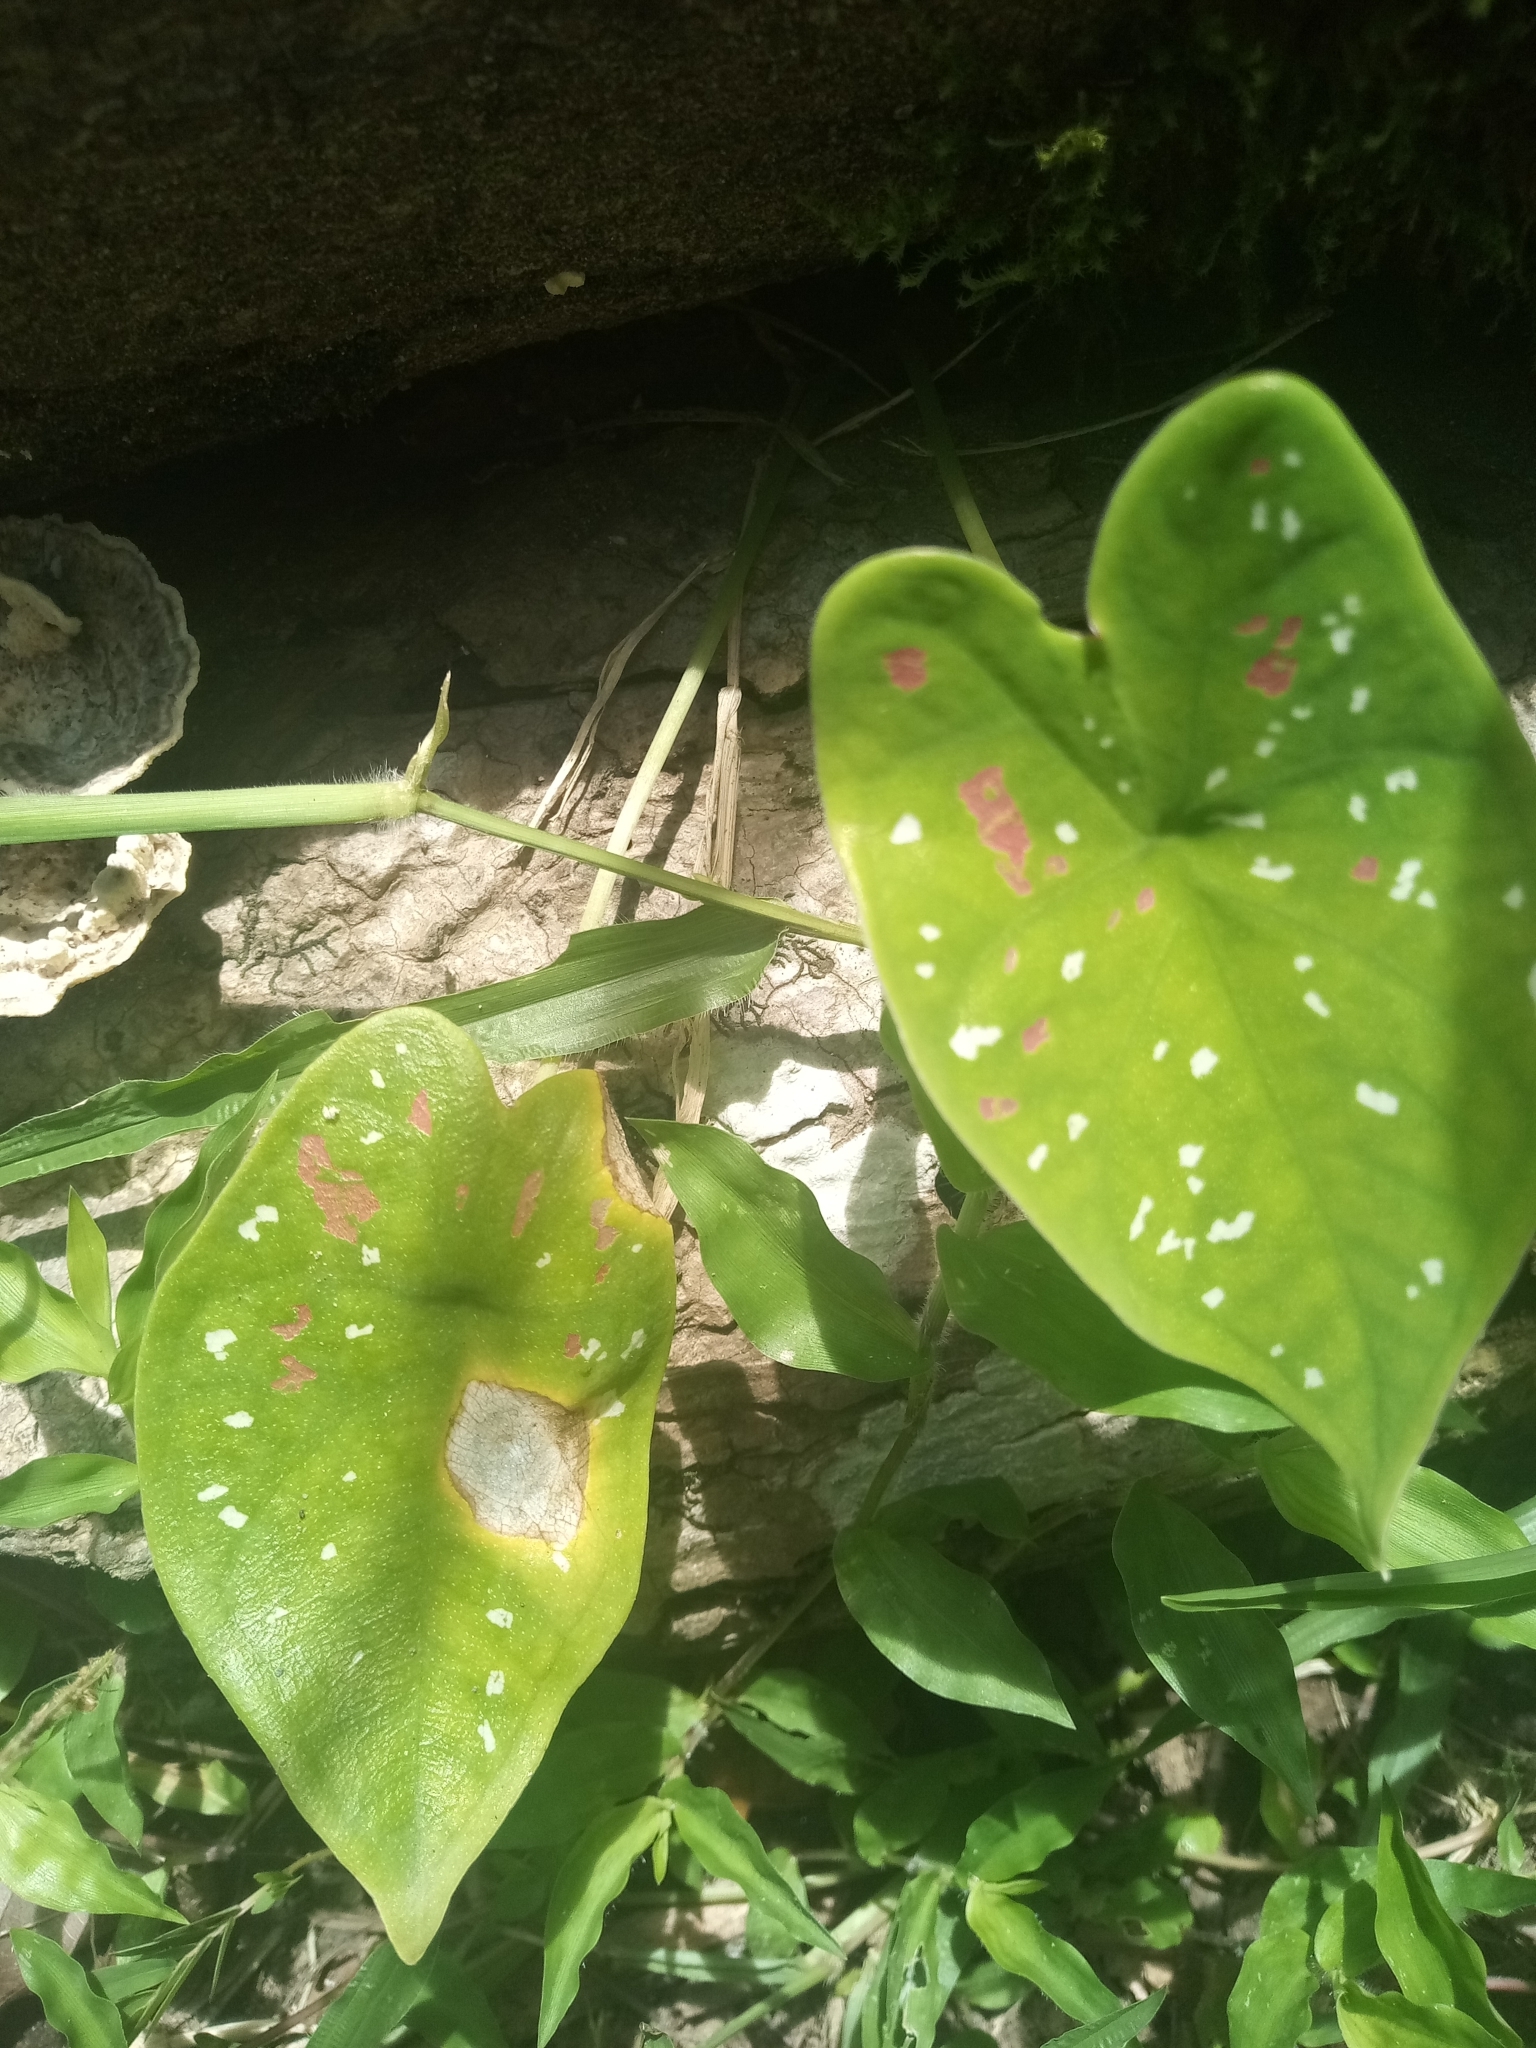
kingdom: Plantae
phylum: Tracheophyta
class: Liliopsida
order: Alismatales
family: Araceae
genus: Caladium
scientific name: Caladium bicolor
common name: Artist's pallet
